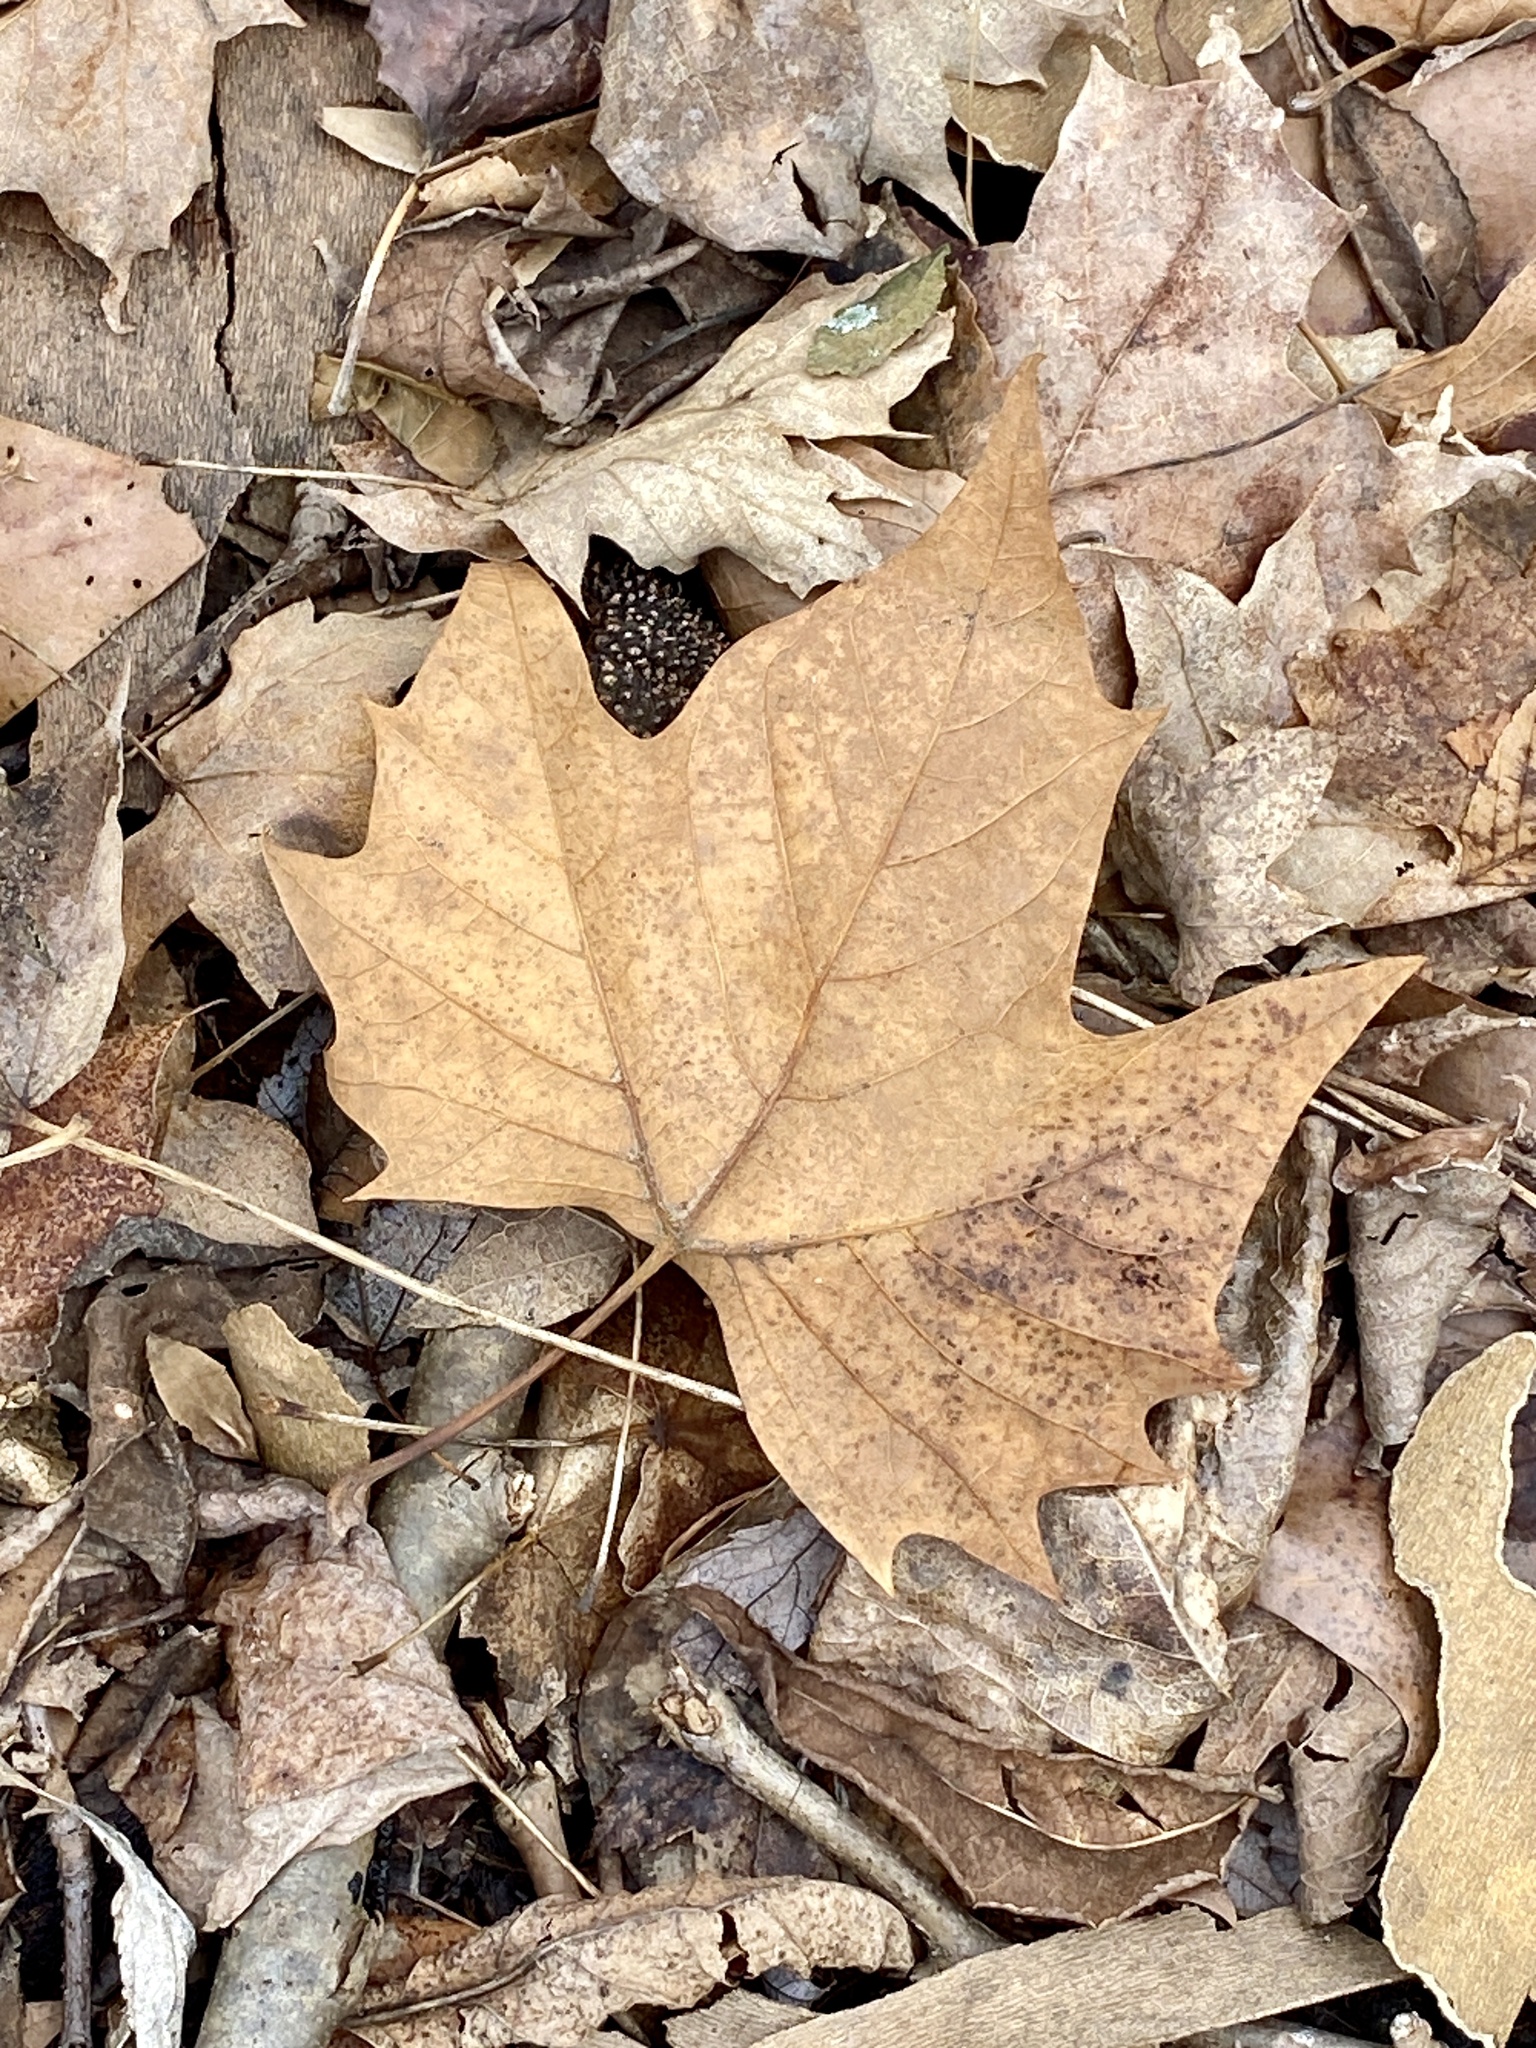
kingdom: Plantae
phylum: Tracheophyta
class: Magnoliopsida
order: Proteales
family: Platanaceae
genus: Platanus
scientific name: Platanus occidentalis
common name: American sycamore
